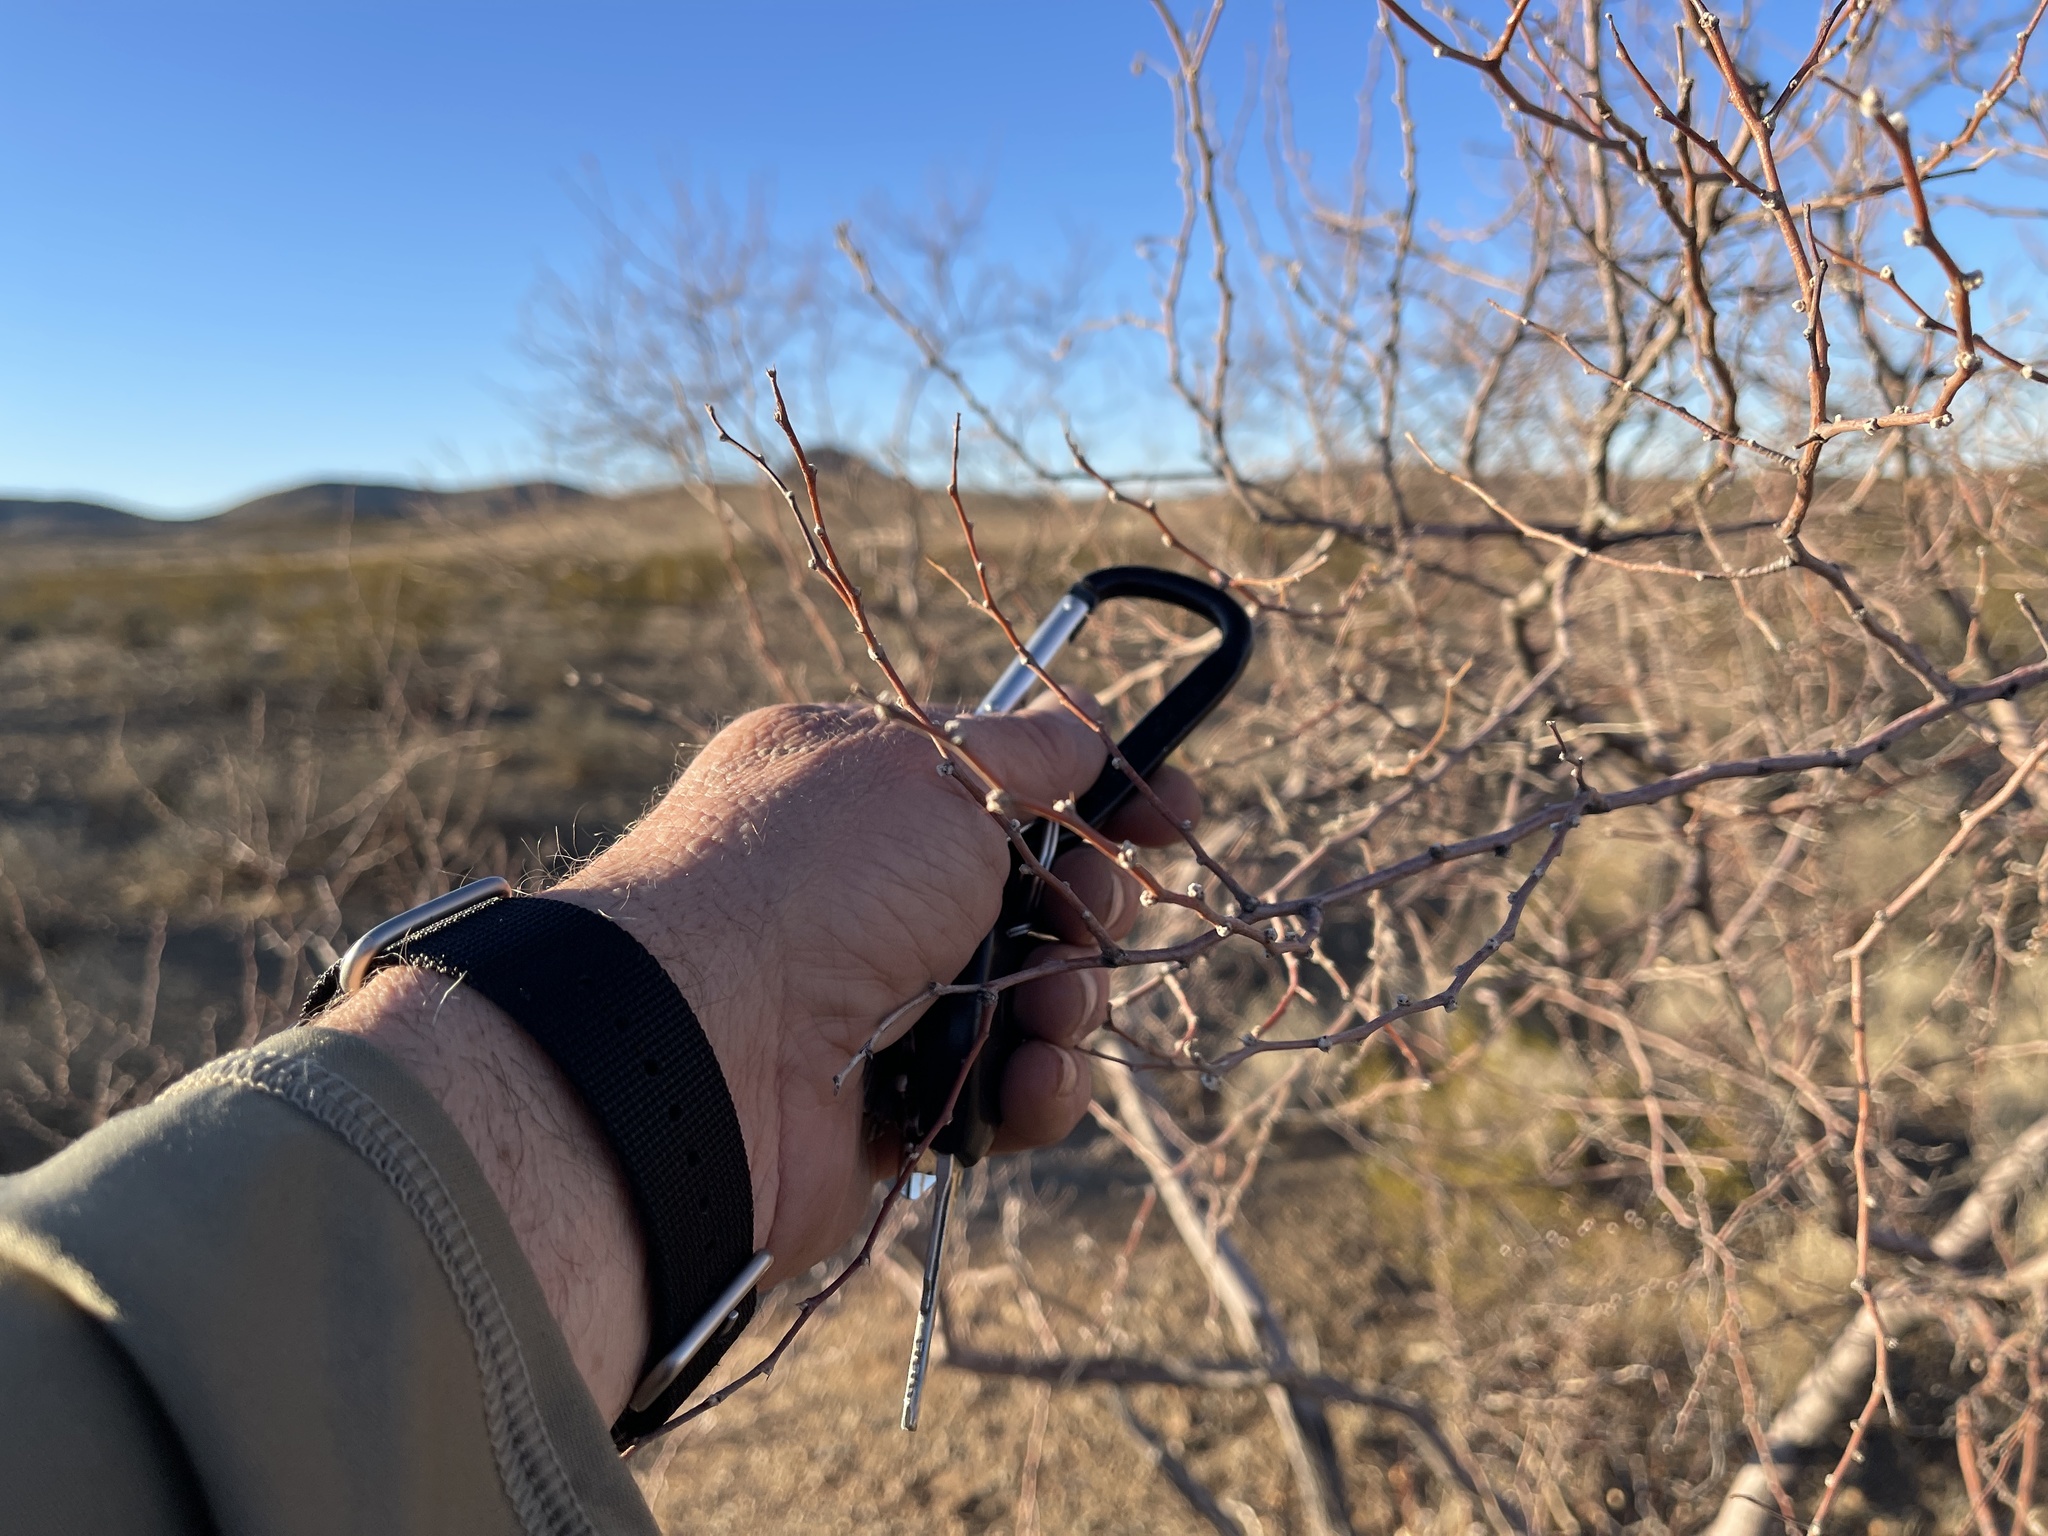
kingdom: Plantae
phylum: Tracheophyta
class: Magnoliopsida
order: Fabales
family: Fabaceae
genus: Vachellia
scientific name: Vachellia constricta
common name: Mescat acacia
